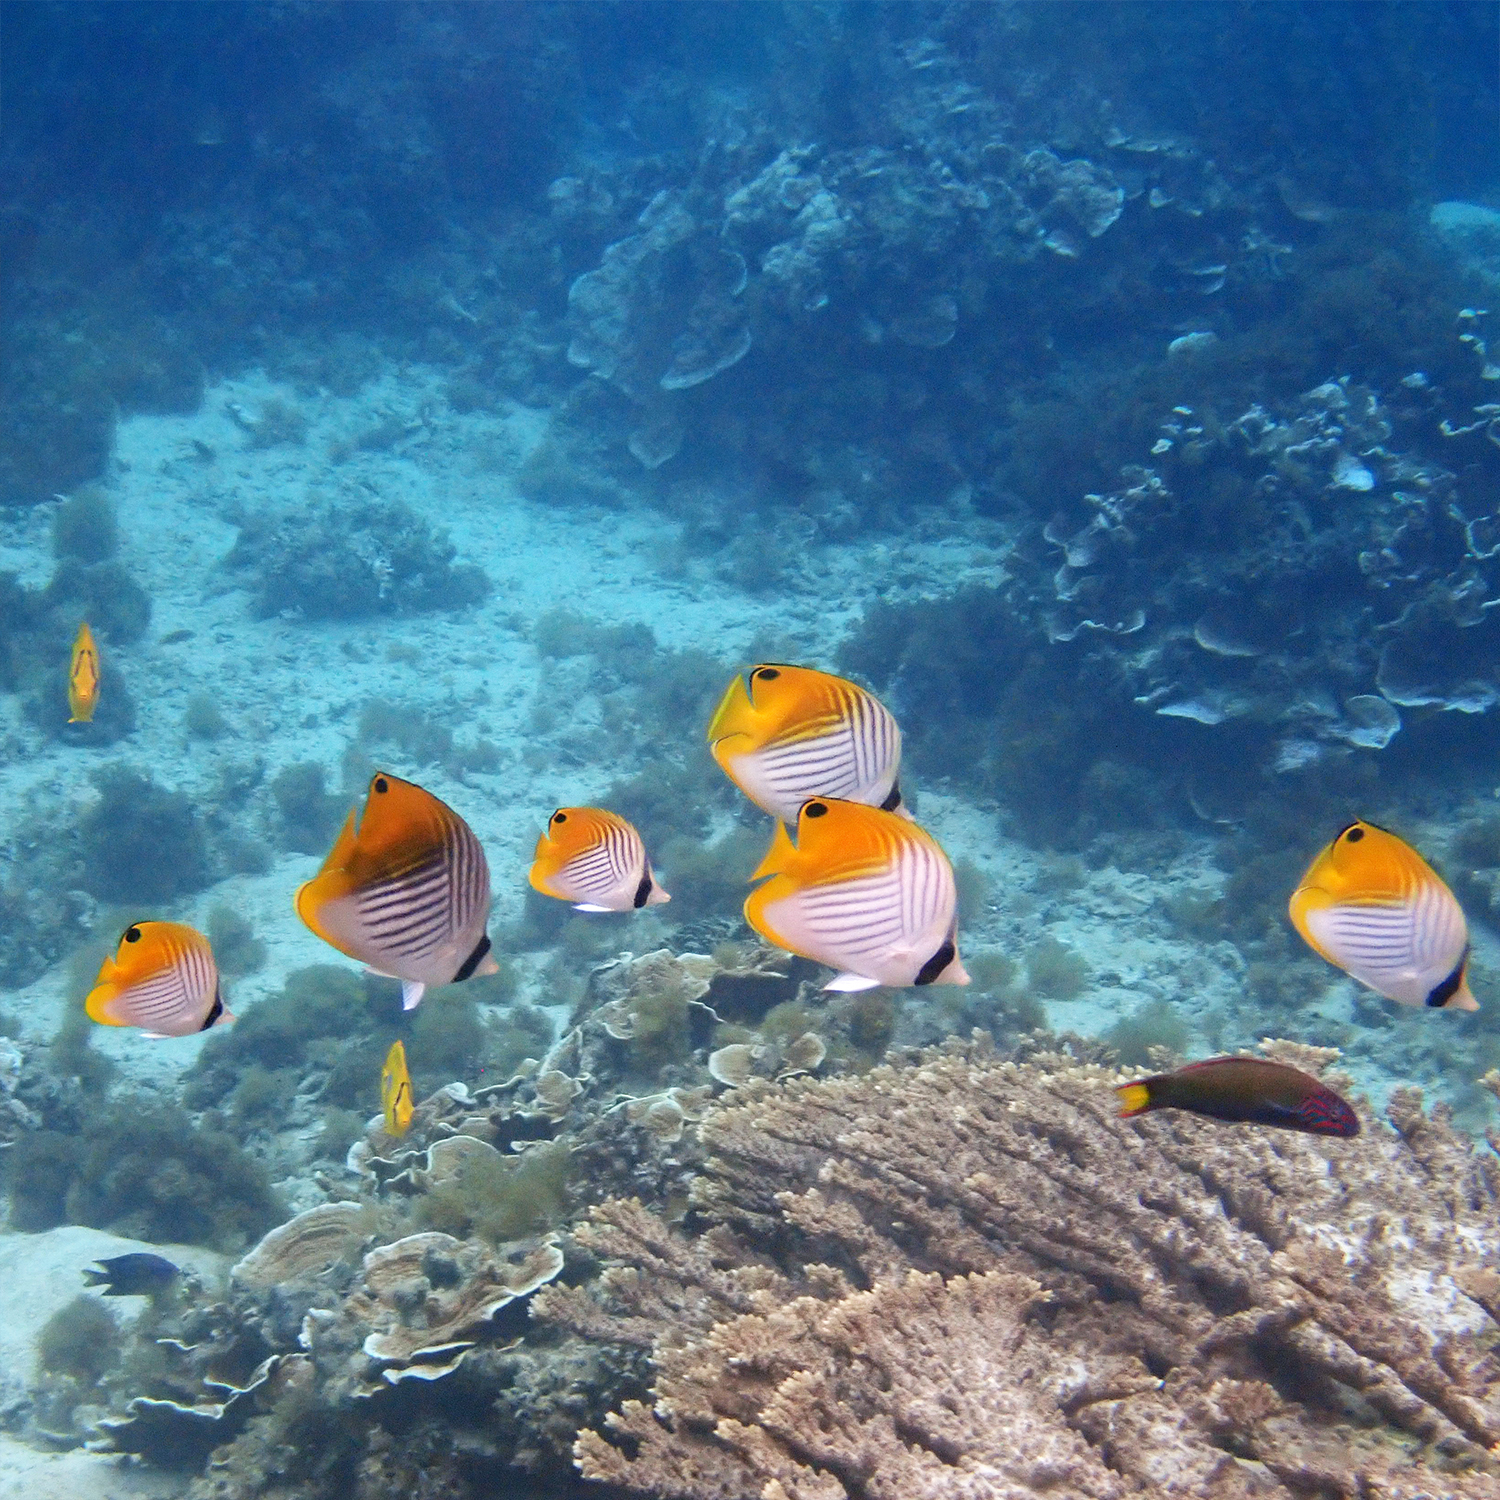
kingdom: Animalia
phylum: Chordata
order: Perciformes
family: Chaetodontidae
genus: Chaetodon
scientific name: Chaetodon auriga
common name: Threadfin butterflyfish
